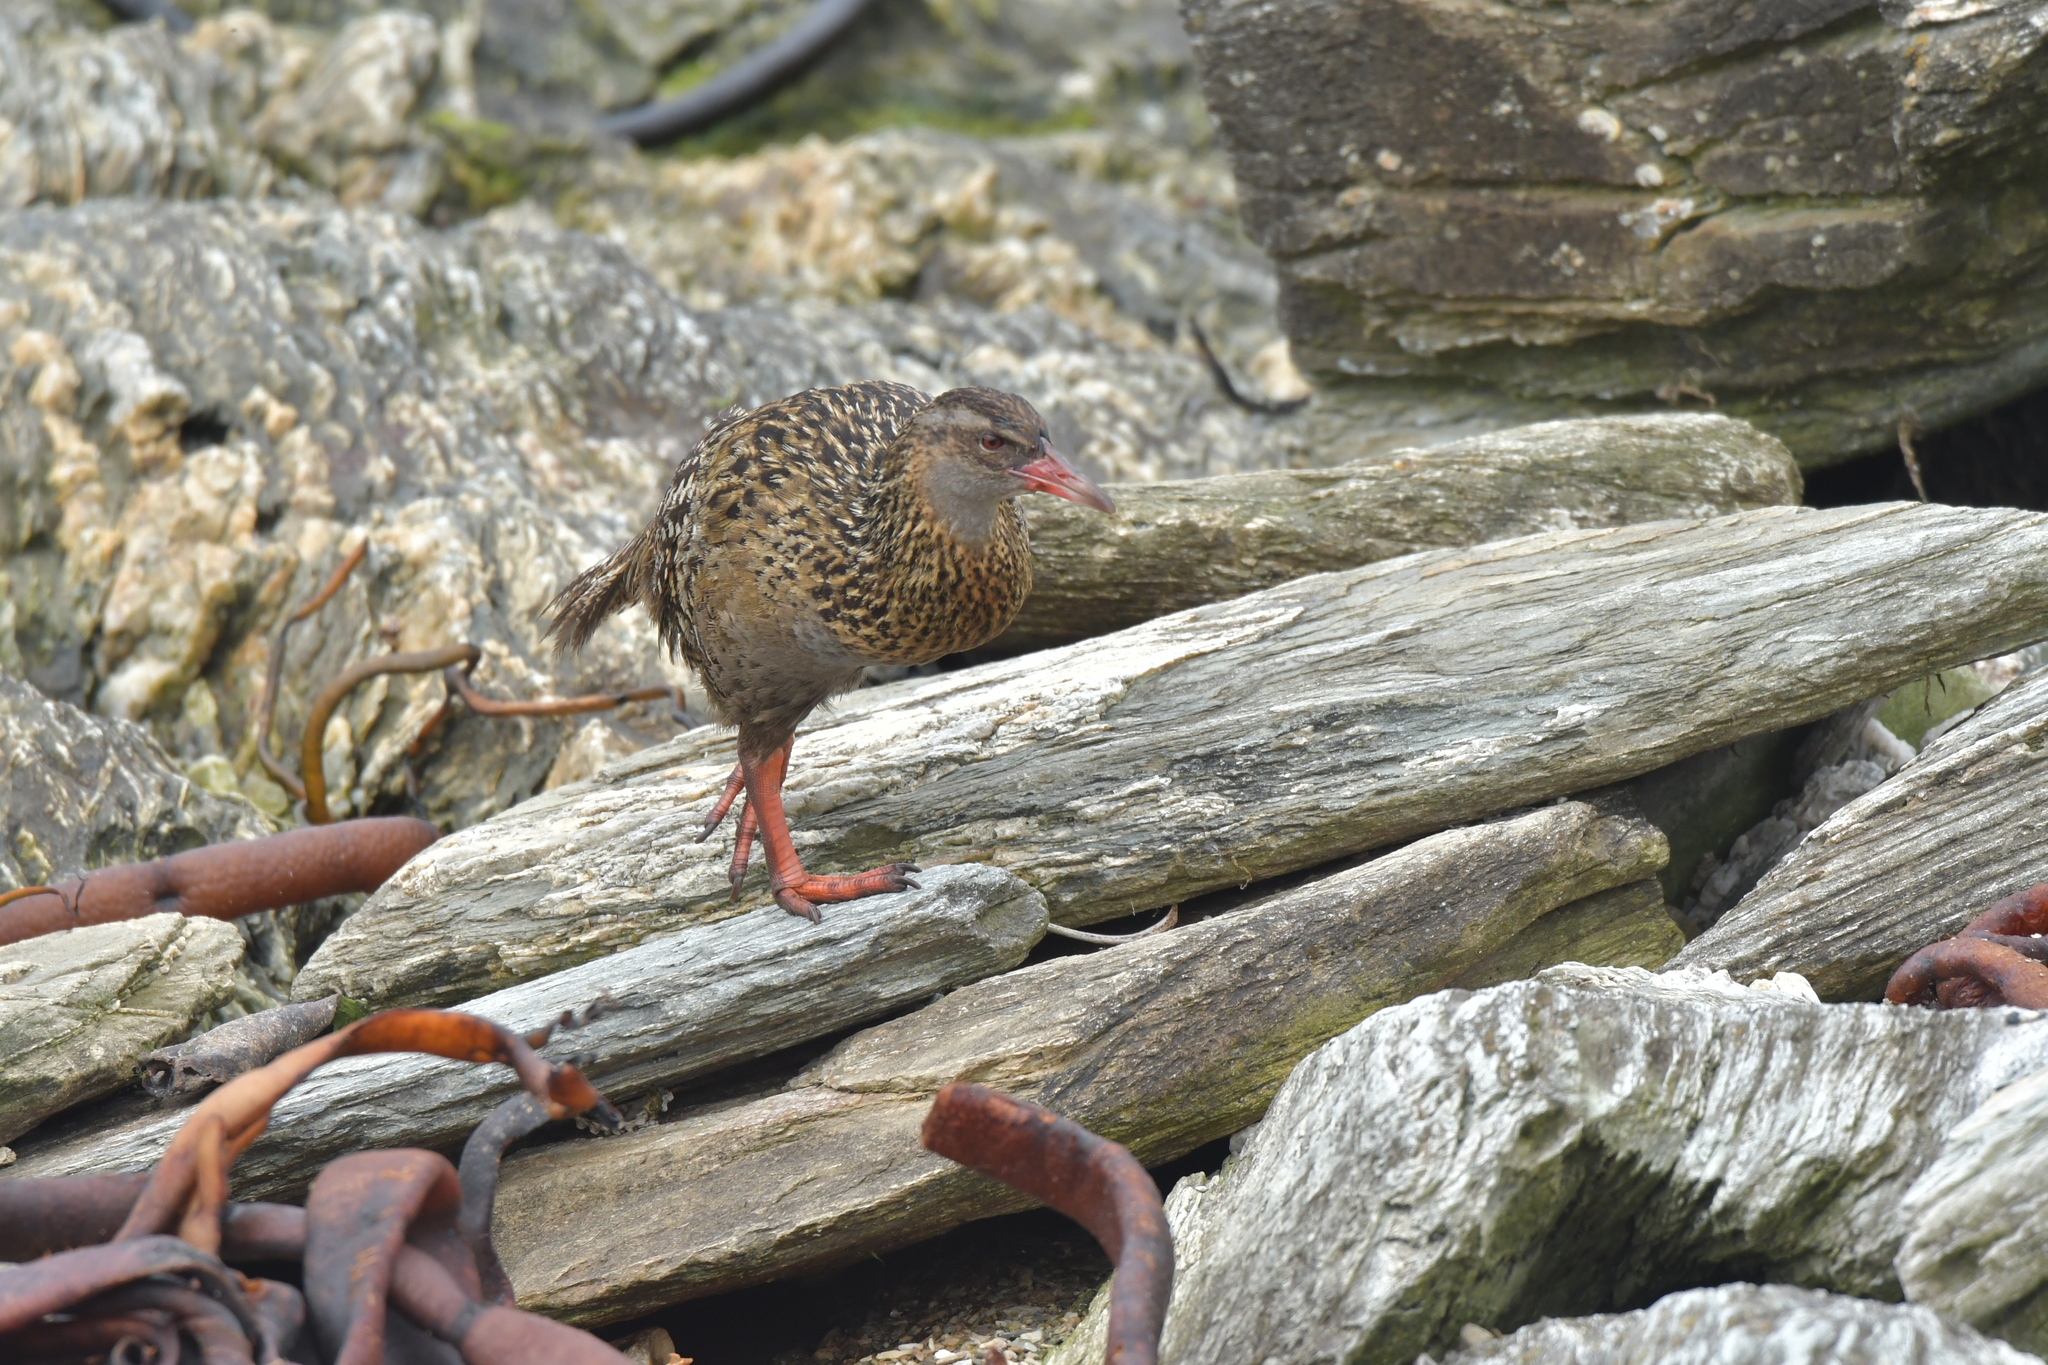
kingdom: Animalia
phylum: Chordata
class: Aves
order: Gruiformes
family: Rallidae
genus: Gallirallus
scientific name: Gallirallus australis
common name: Weka
